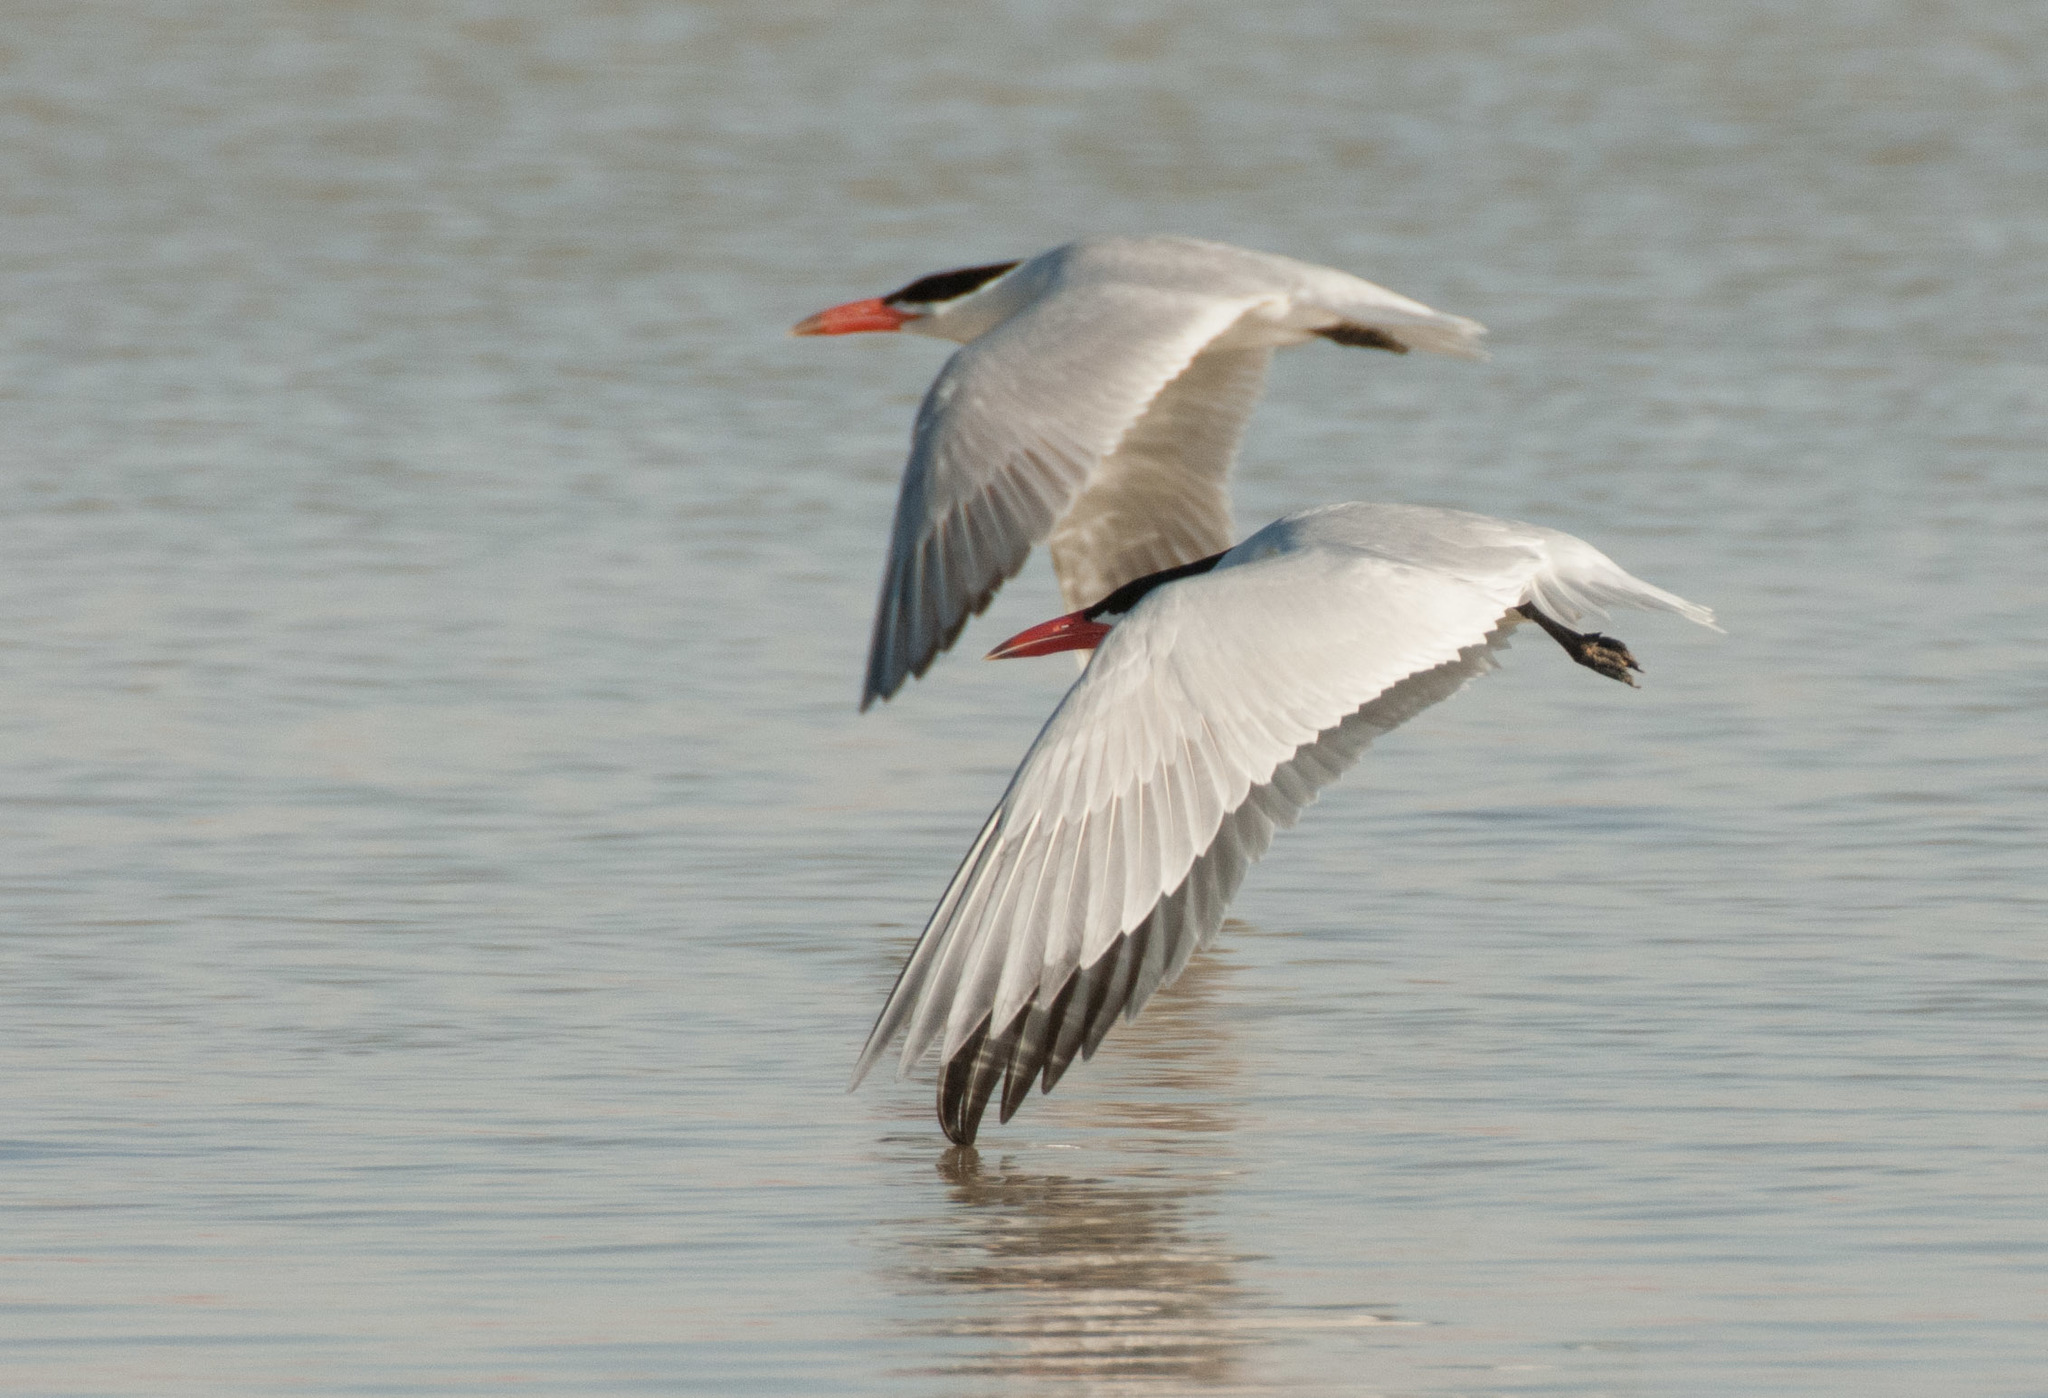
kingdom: Animalia
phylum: Chordata
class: Aves
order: Charadriiformes
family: Laridae
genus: Hydroprogne
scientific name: Hydroprogne caspia
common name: Caspian tern
